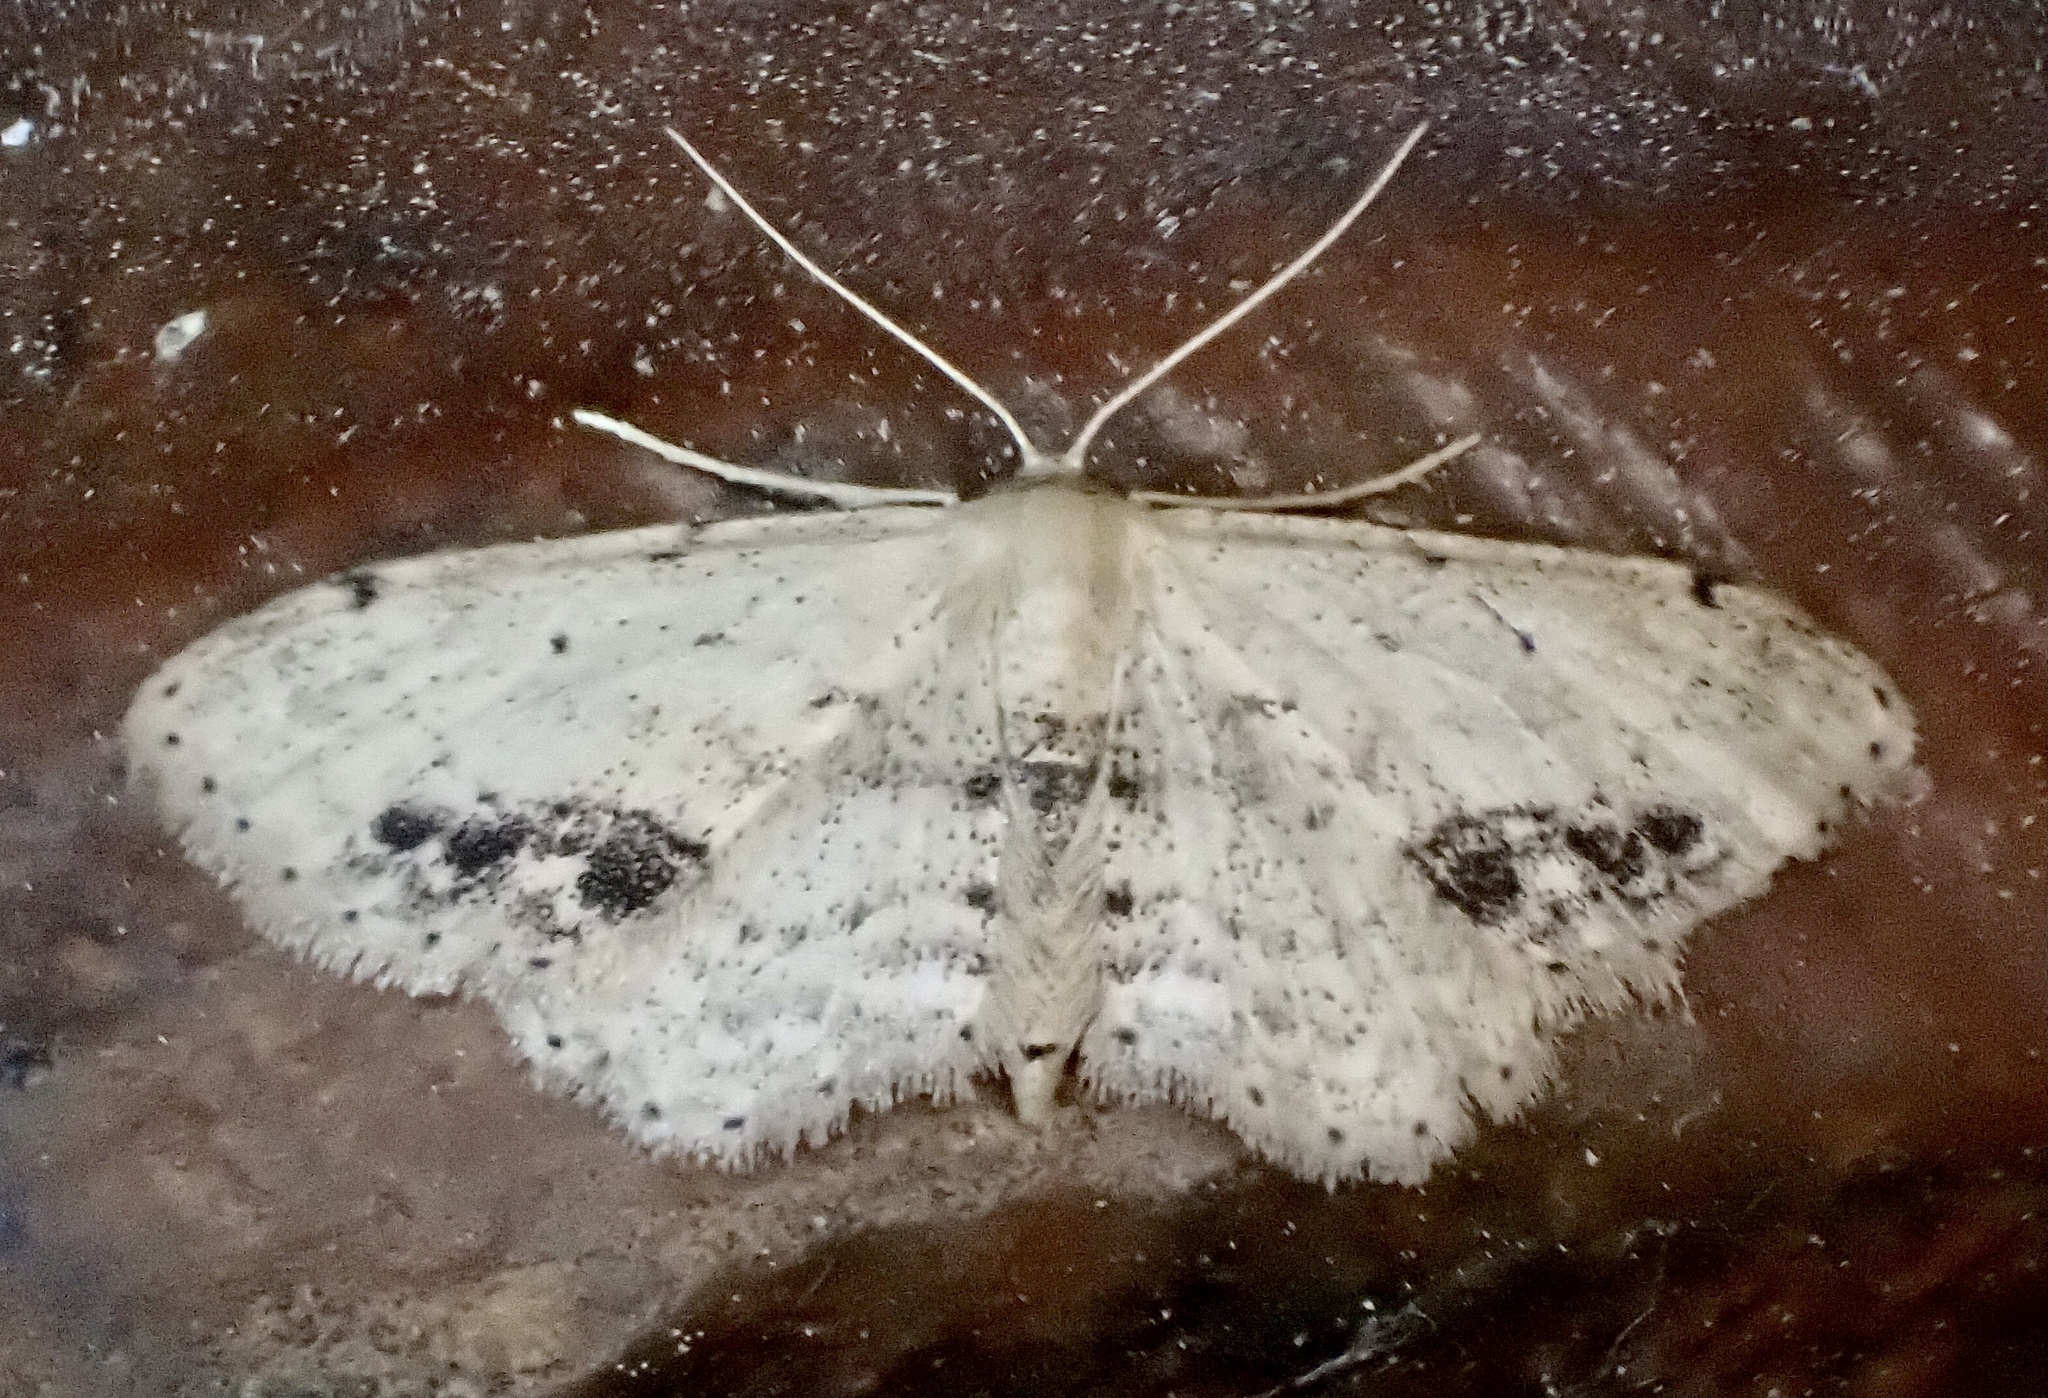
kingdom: Animalia
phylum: Arthropoda
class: Insecta
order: Lepidoptera
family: Geometridae
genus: Idaea
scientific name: Idaea dimidiata
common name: Single-dotted wave
